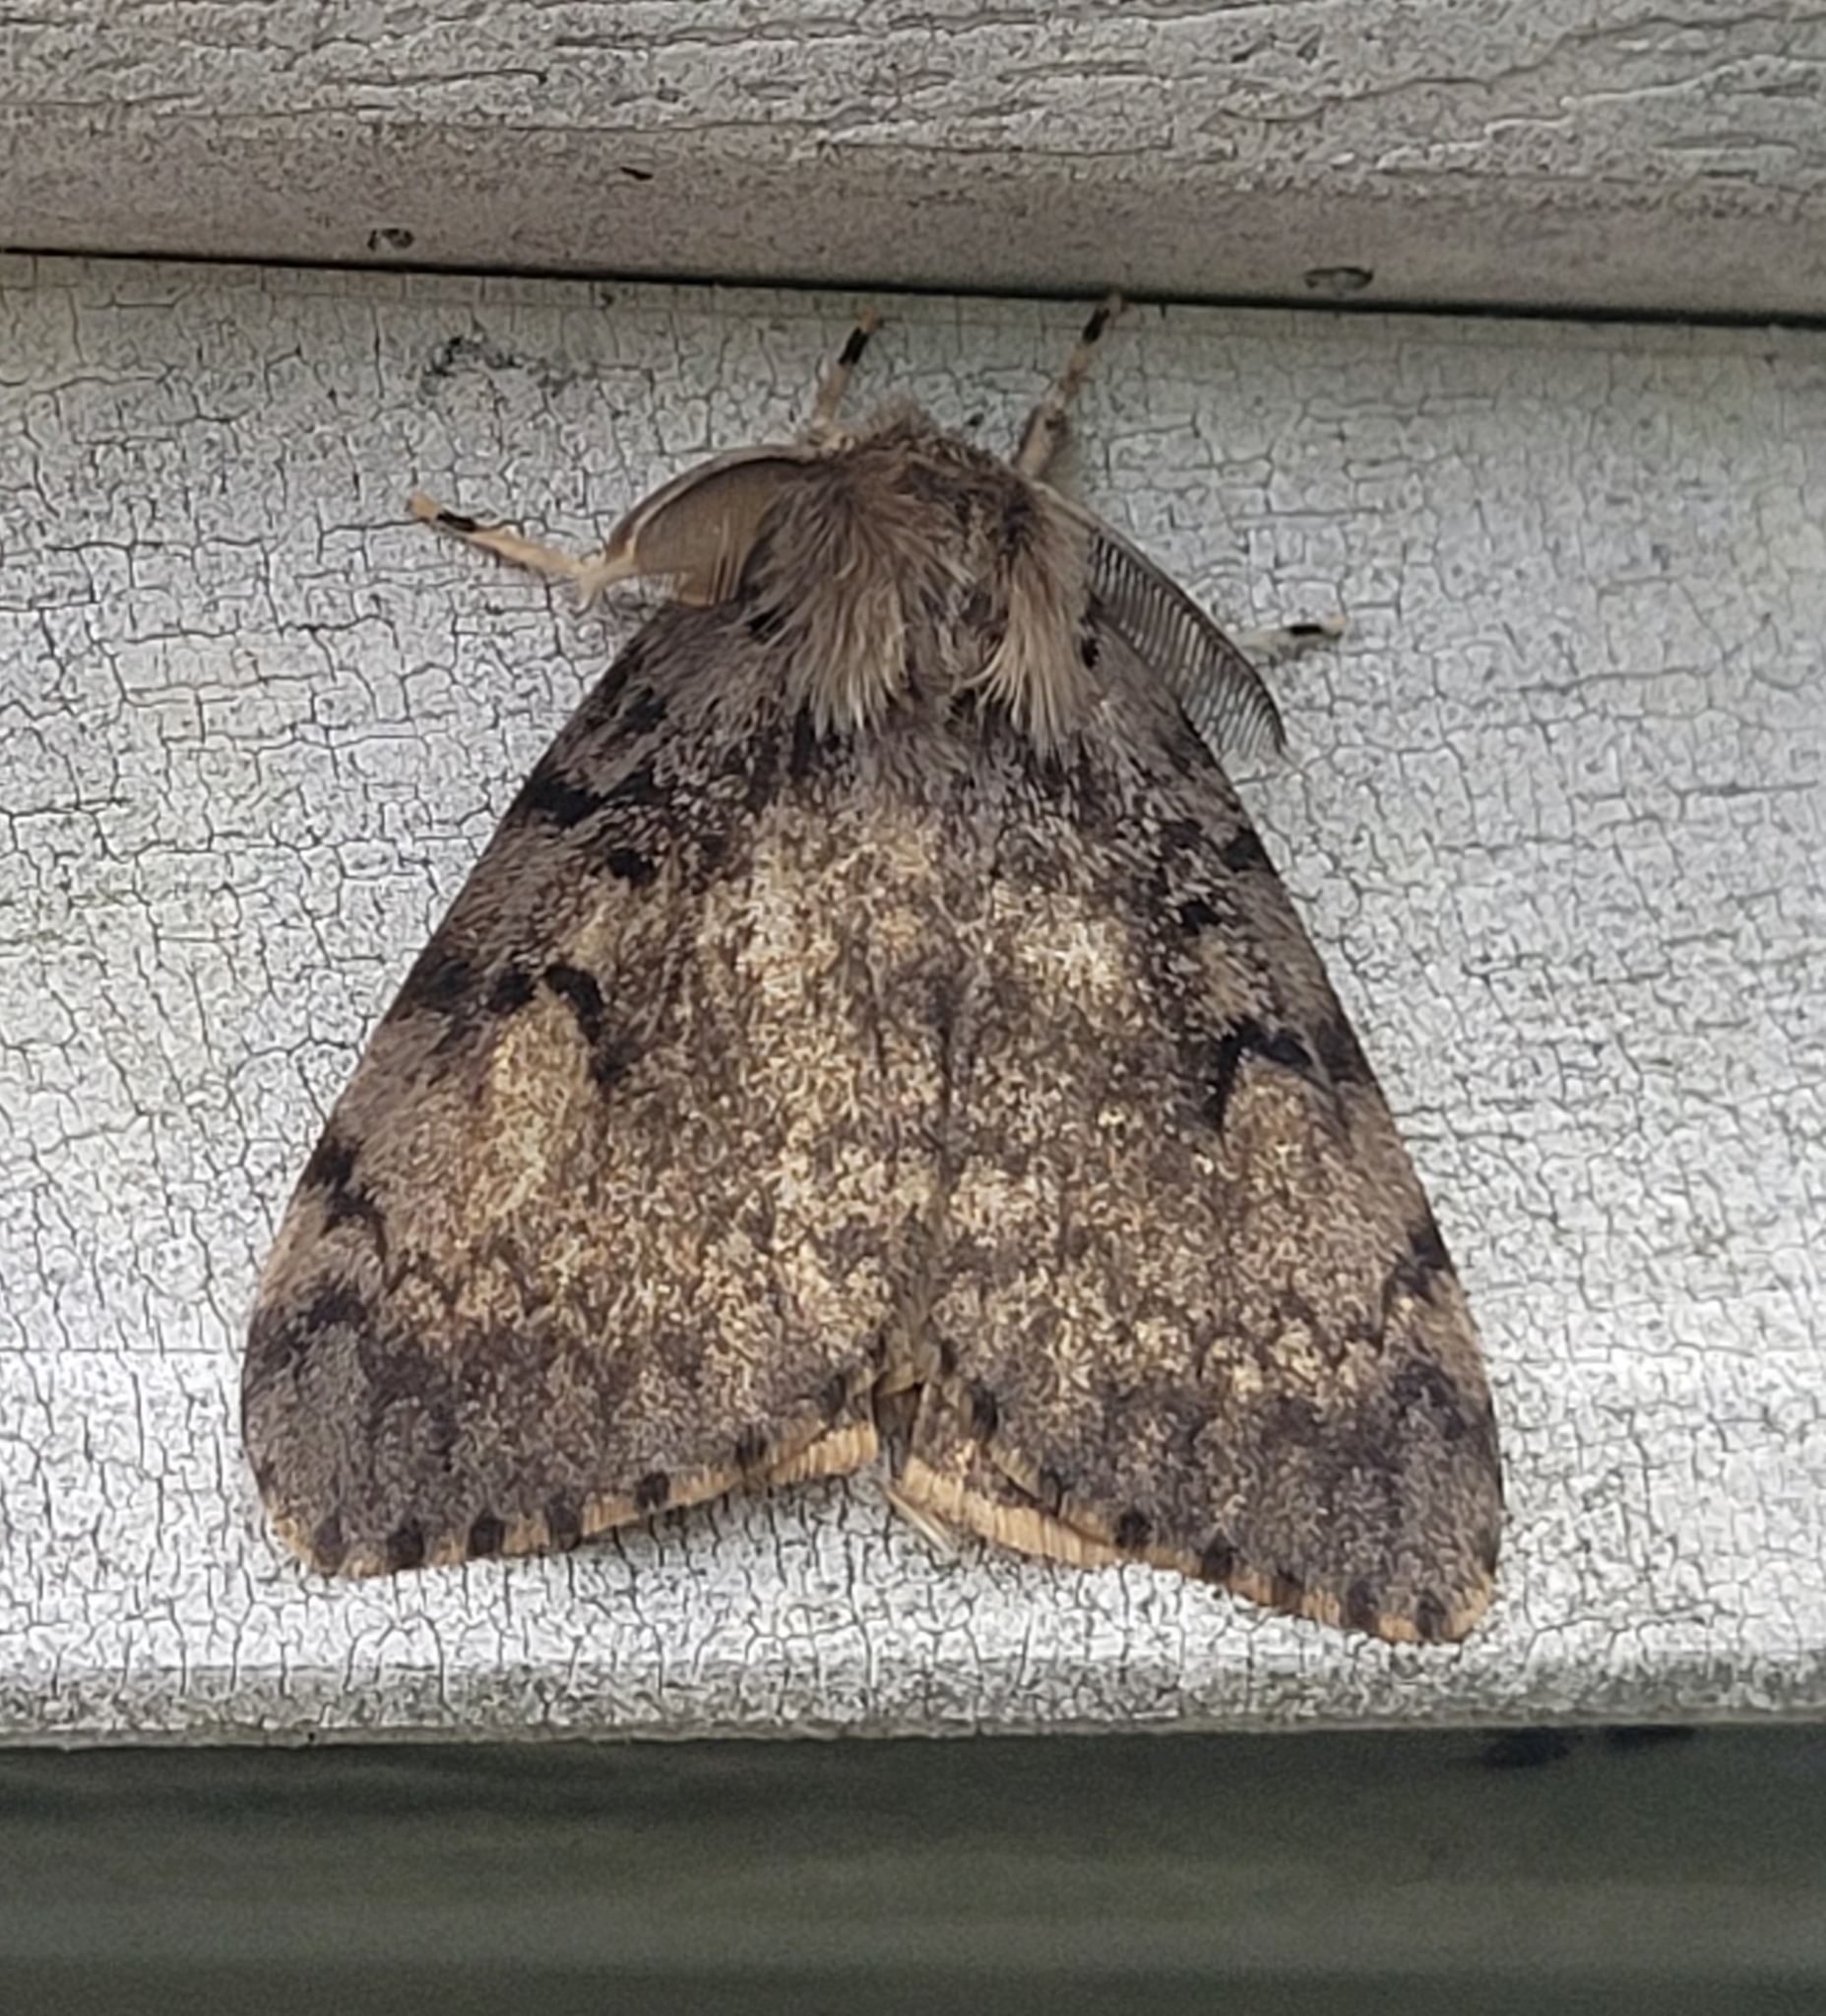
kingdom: Animalia
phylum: Arthropoda
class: Insecta
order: Lepidoptera
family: Erebidae
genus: Lymantria
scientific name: Lymantria dispar
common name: Gypsy moth
